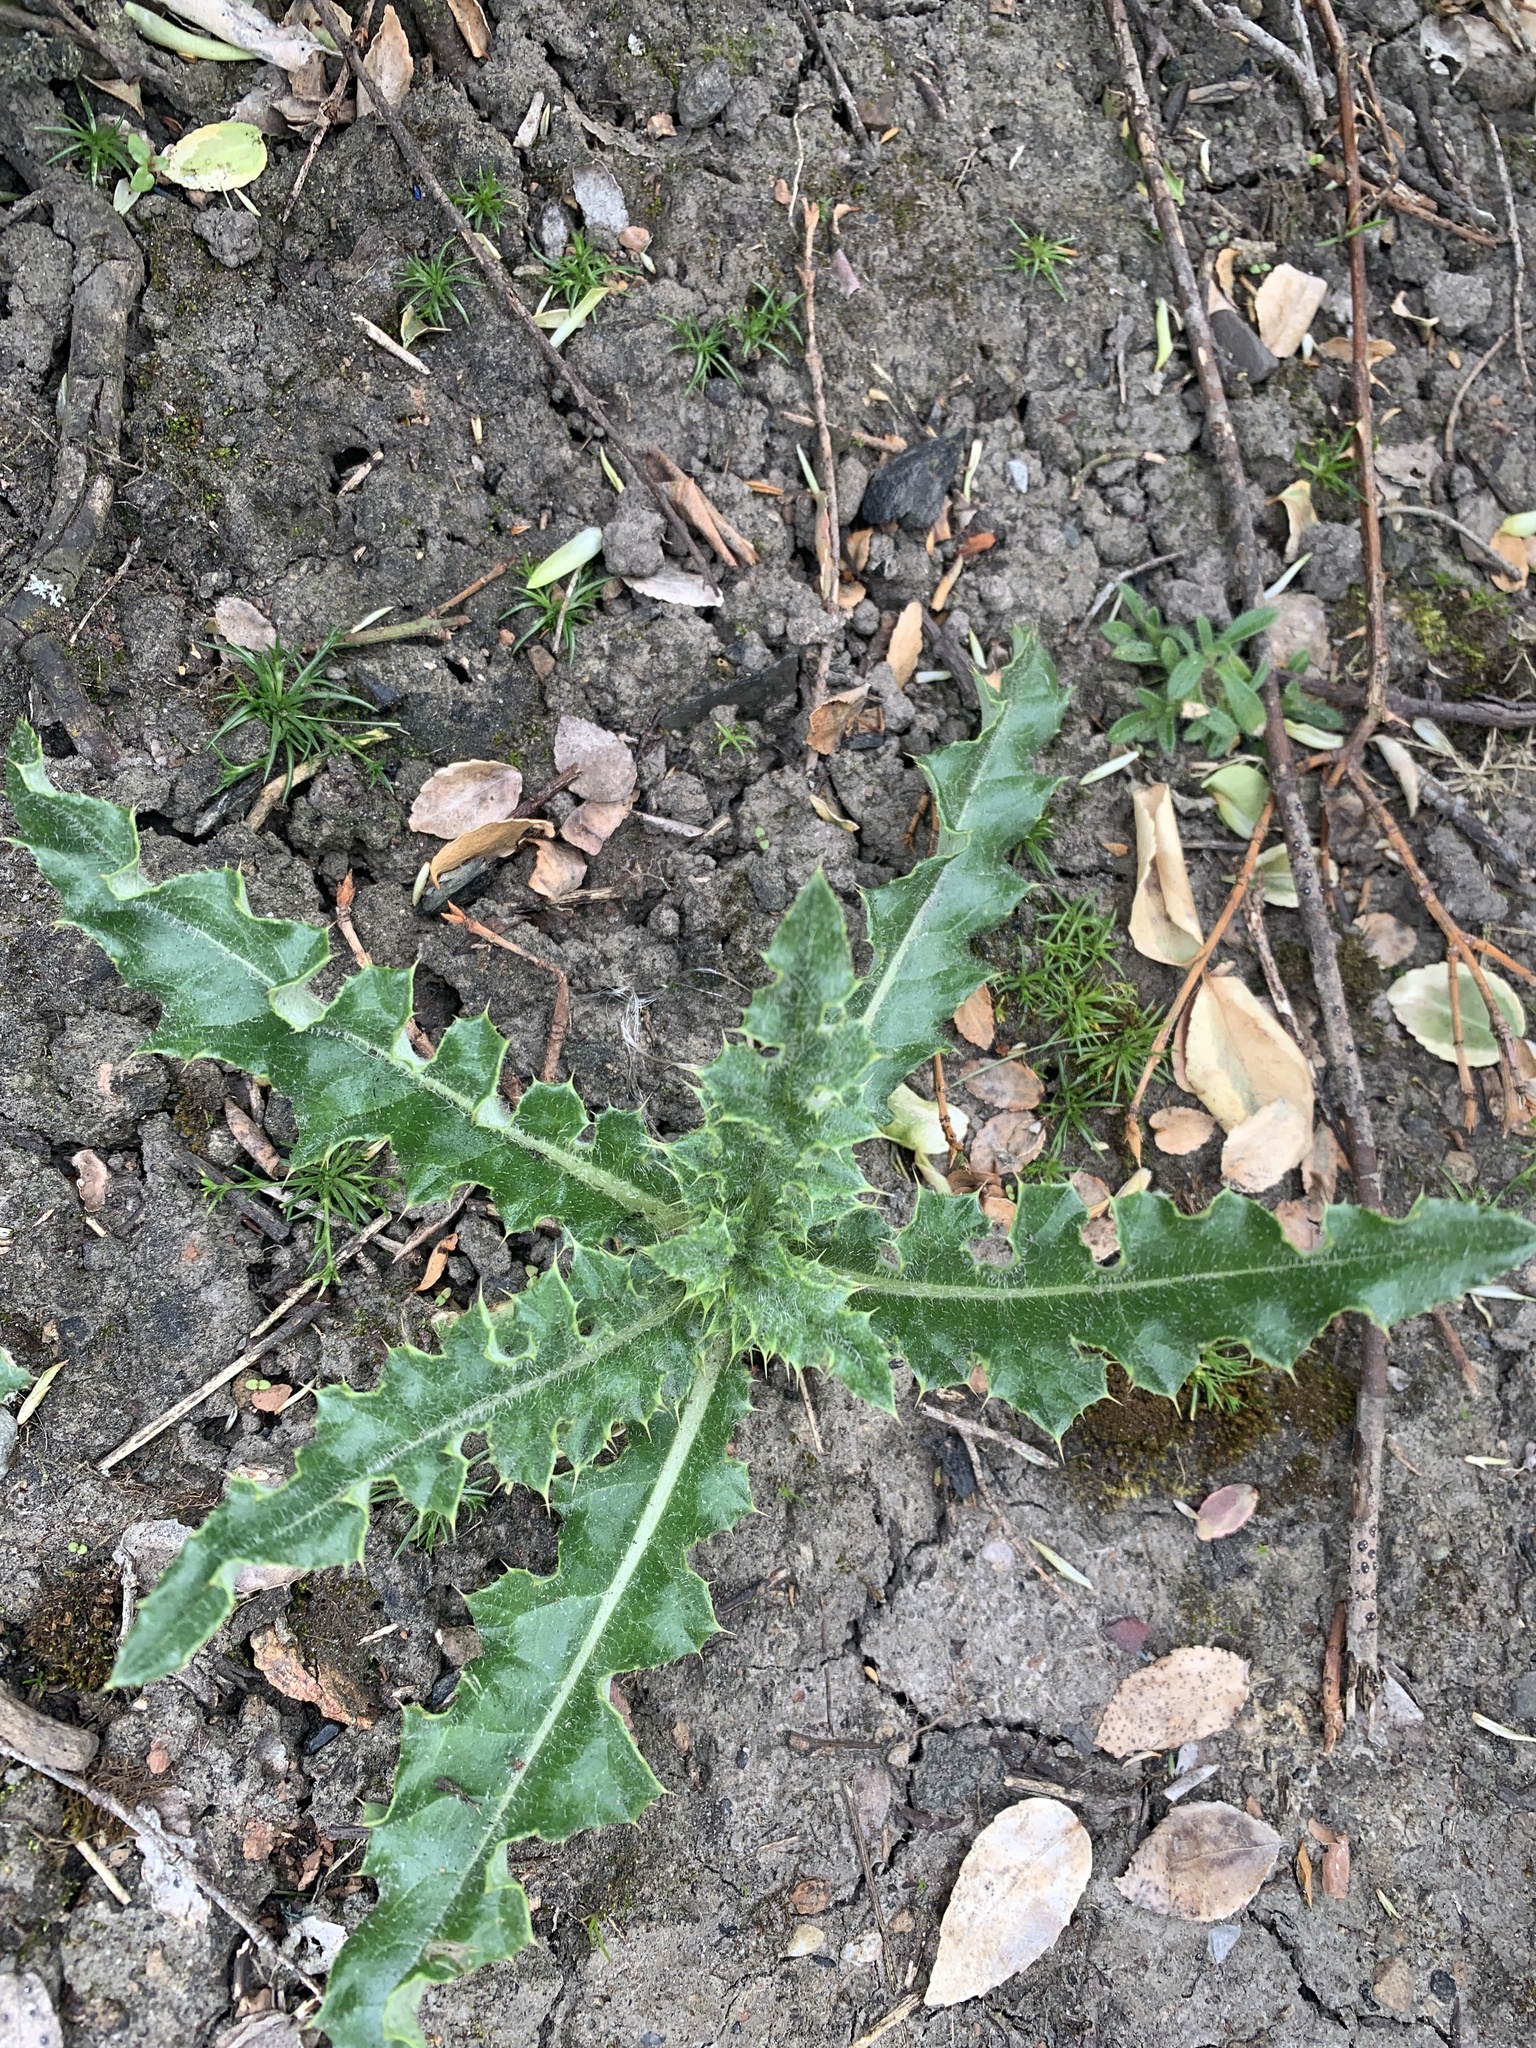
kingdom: Plantae
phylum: Tracheophyta
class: Magnoliopsida
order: Asterales
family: Asteraceae
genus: Cirsium
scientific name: Cirsium arvense
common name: Creeping thistle
